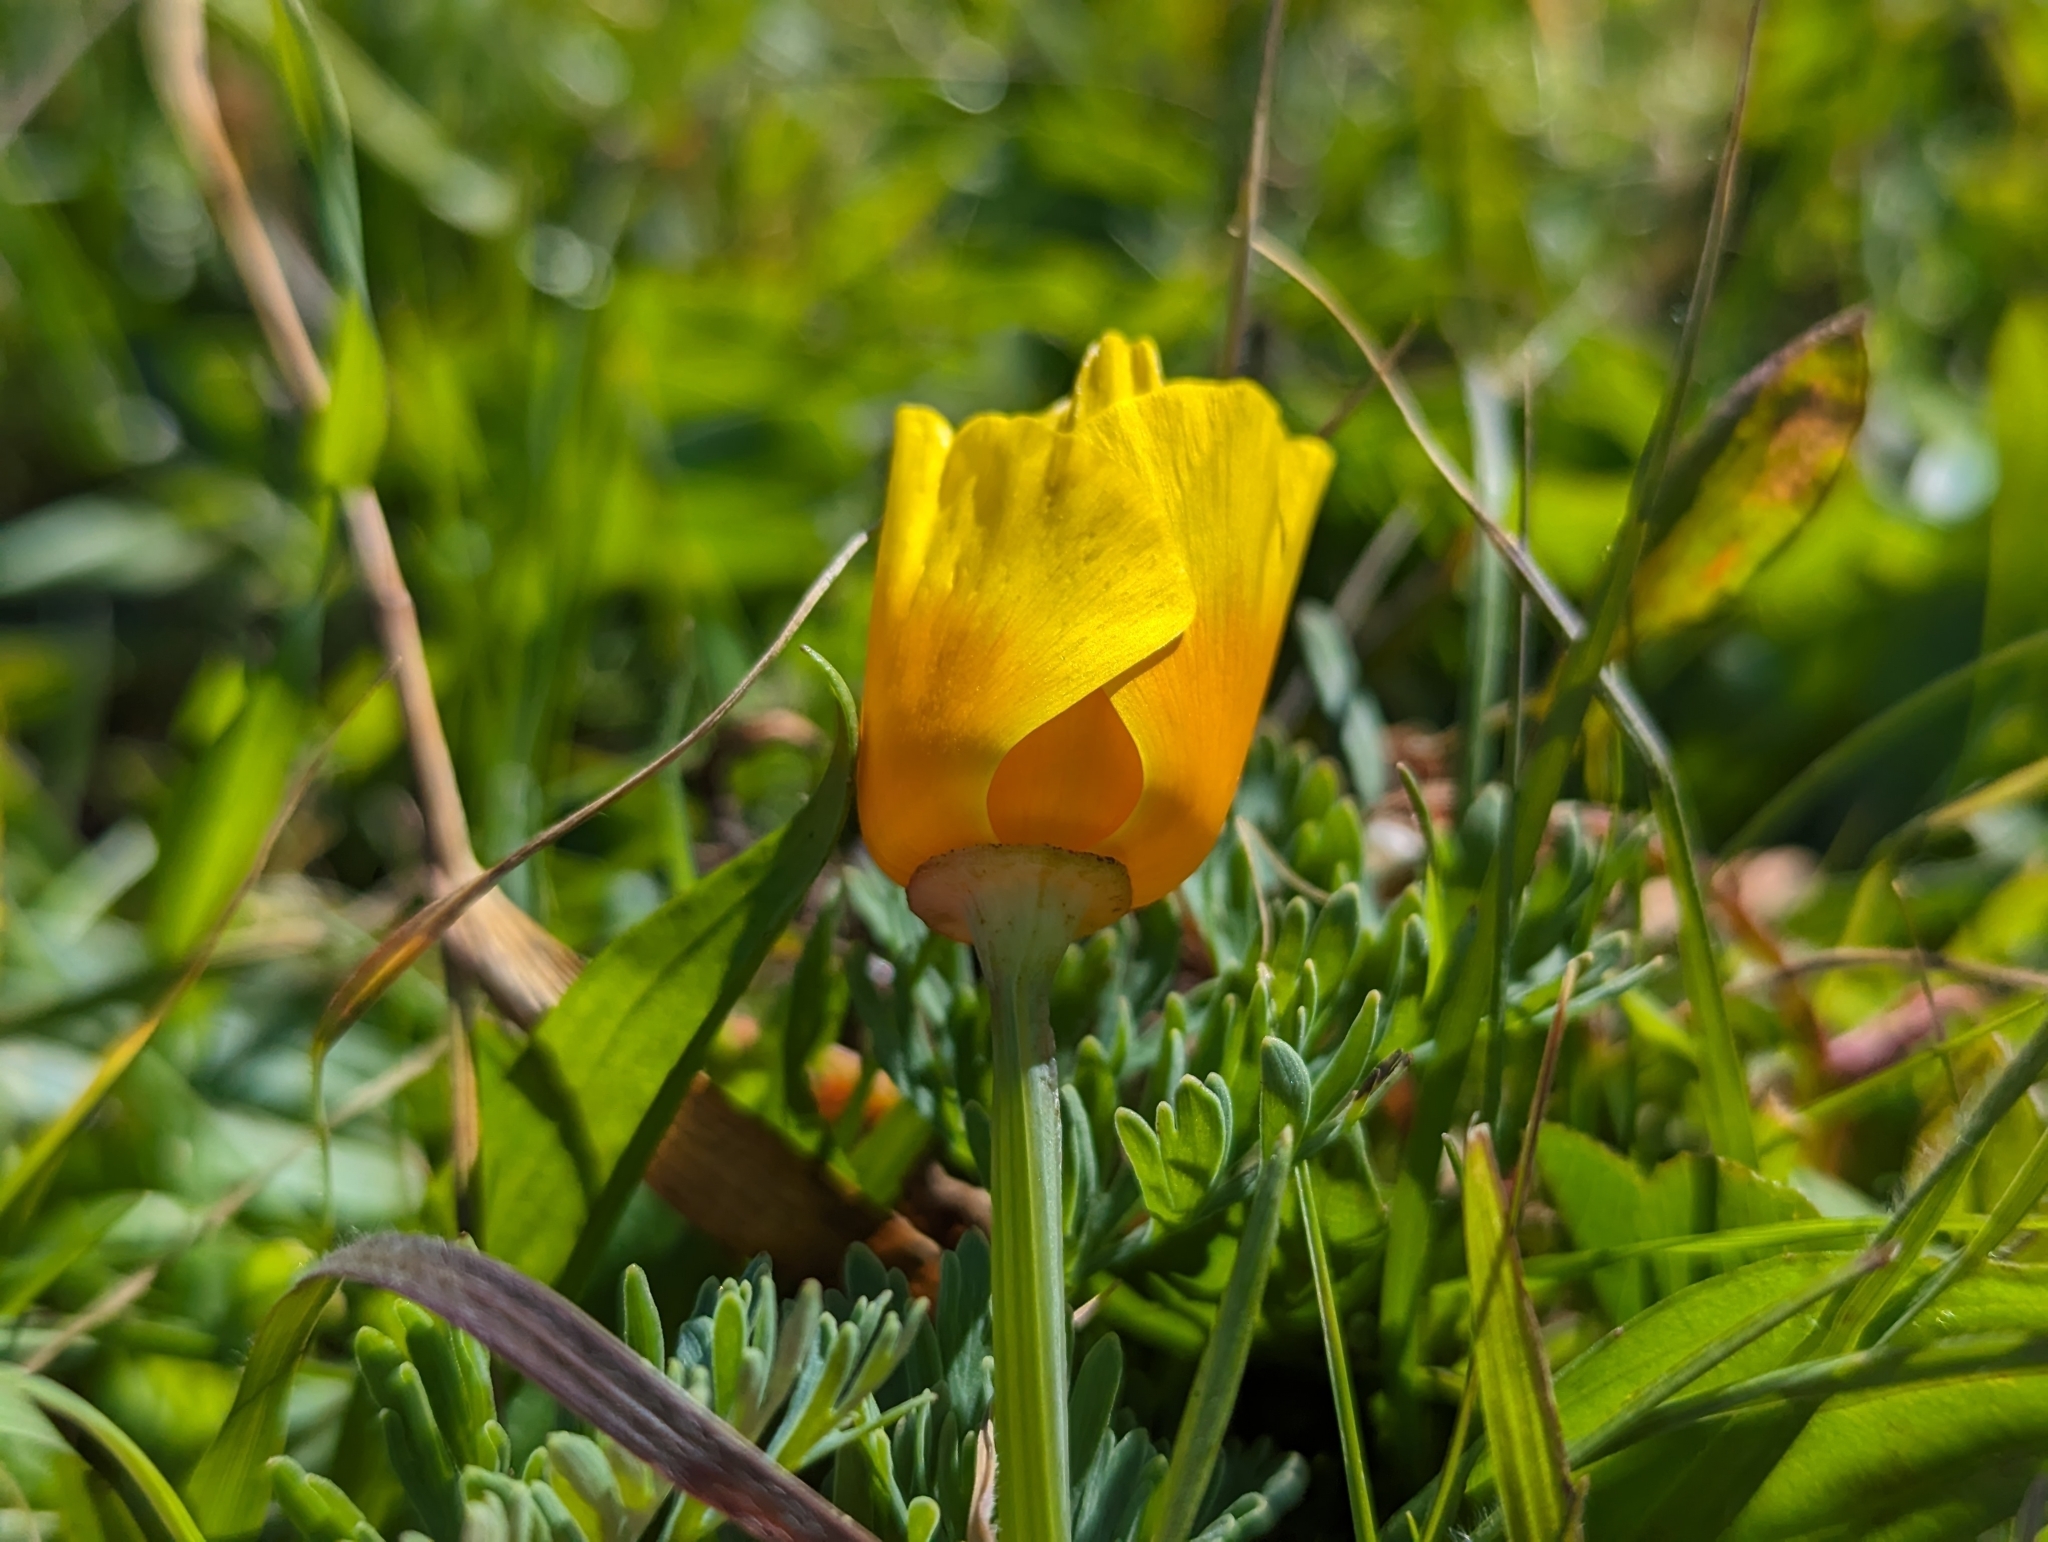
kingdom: Plantae
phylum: Tracheophyta
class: Magnoliopsida
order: Ranunculales
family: Papaveraceae
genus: Eschscholzia
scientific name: Eschscholzia californica
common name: California poppy
